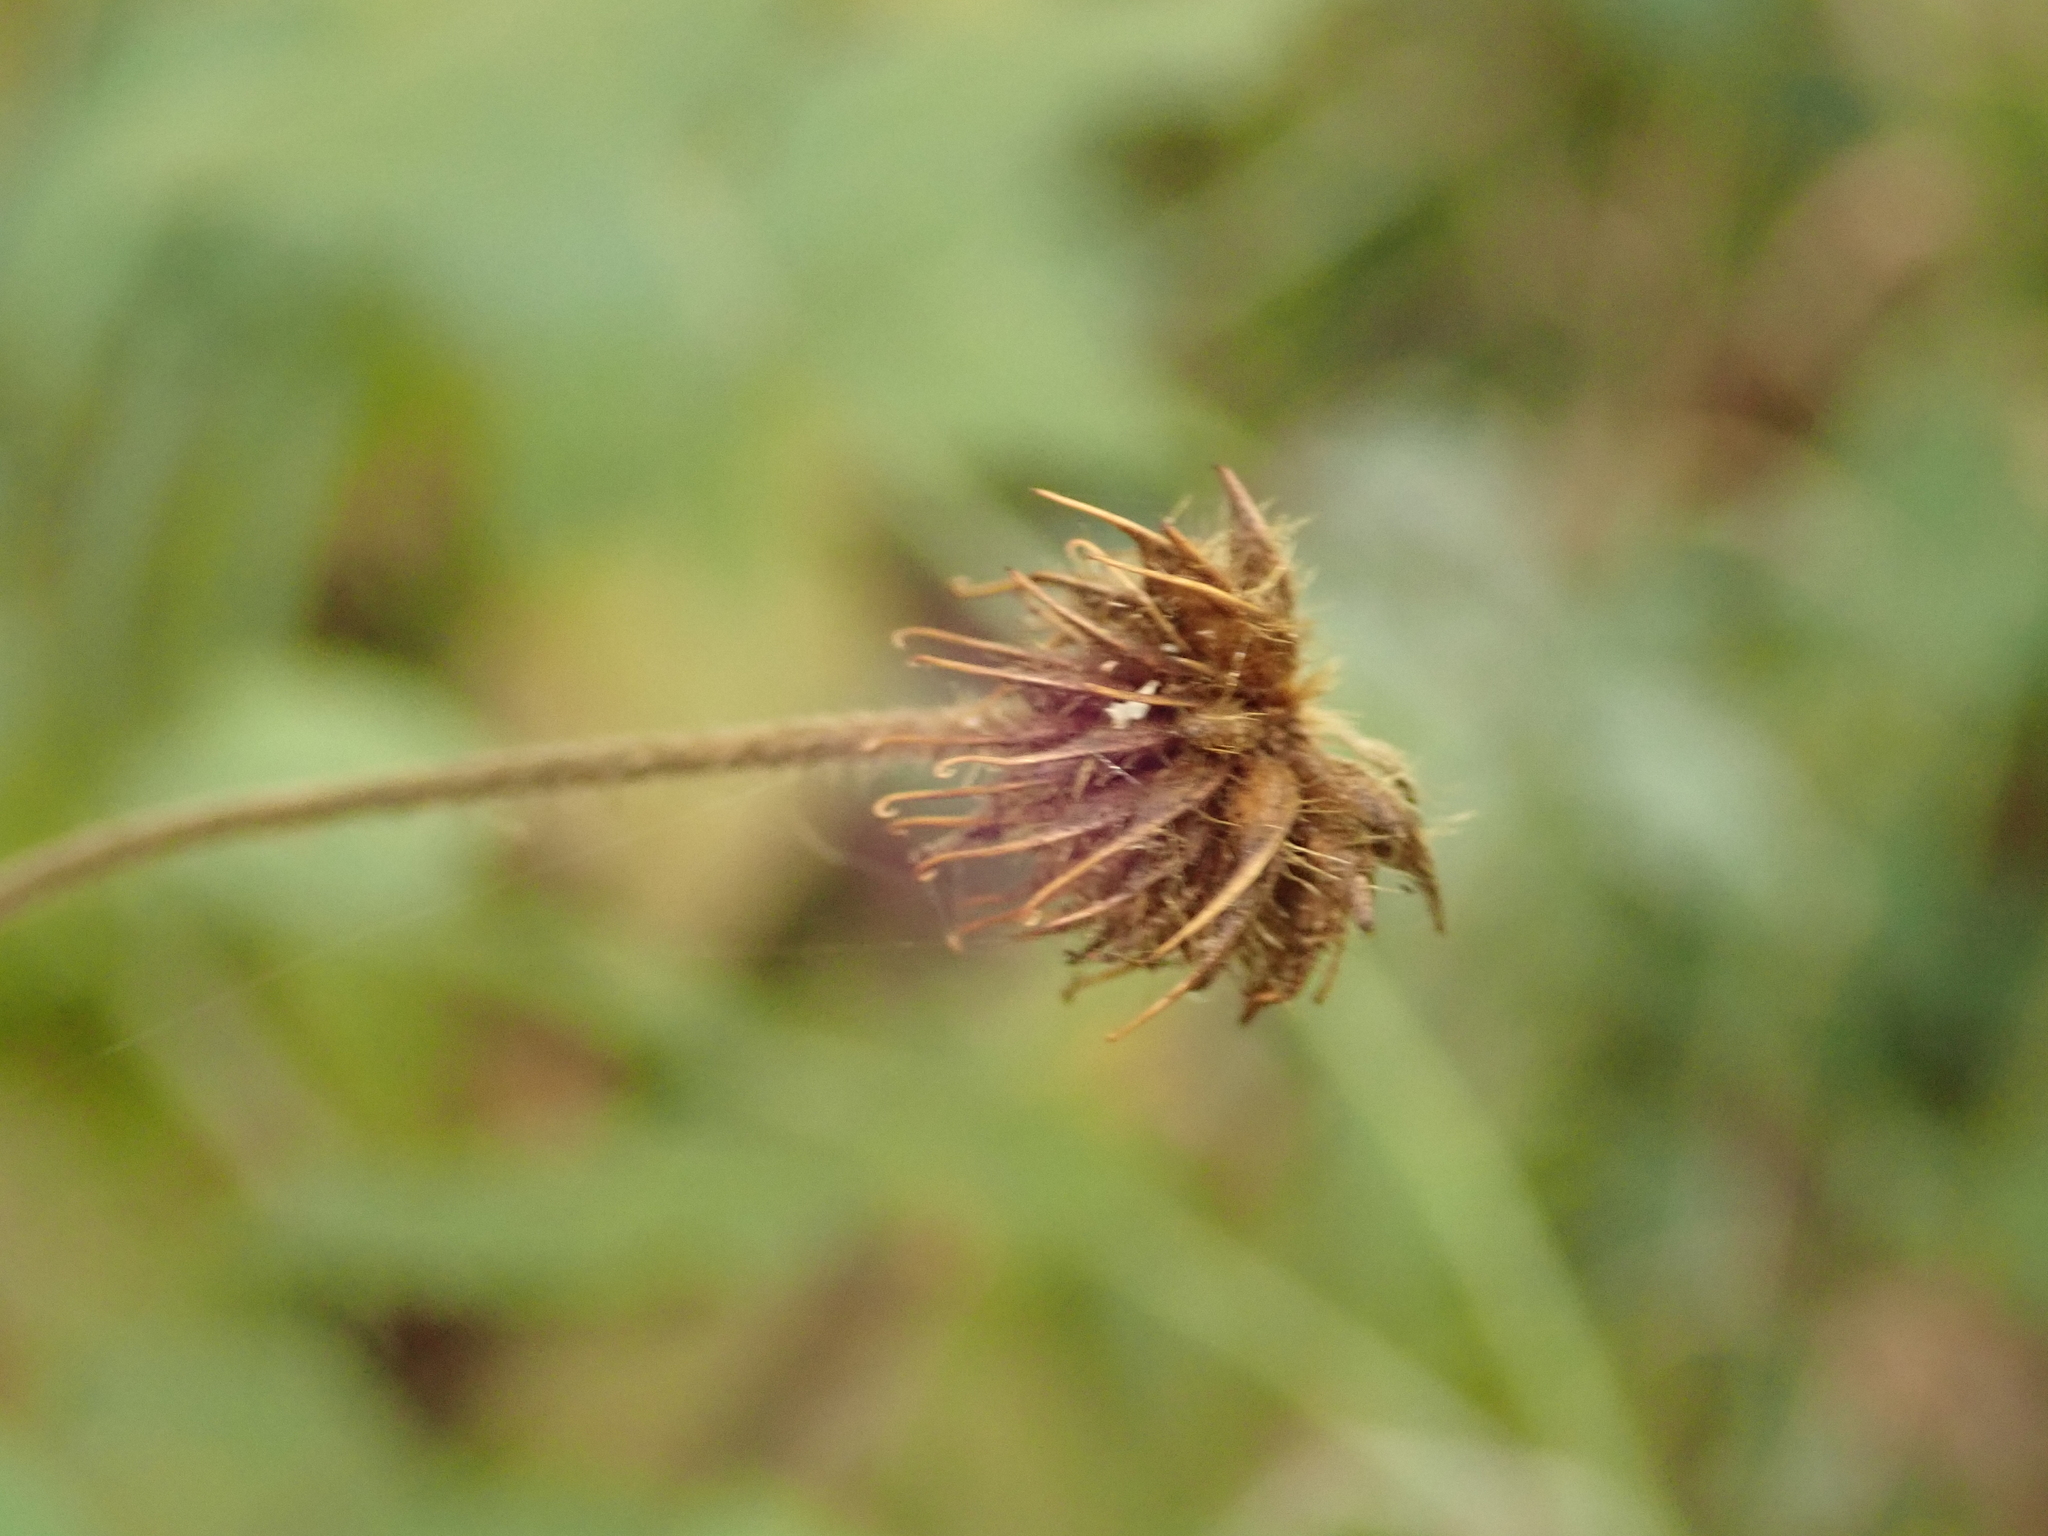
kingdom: Plantae
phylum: Tracheophyta
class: Magnoliopsida
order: Rosales
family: Rosaceae
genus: Geum
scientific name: Geum urbanum
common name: Wood avens
